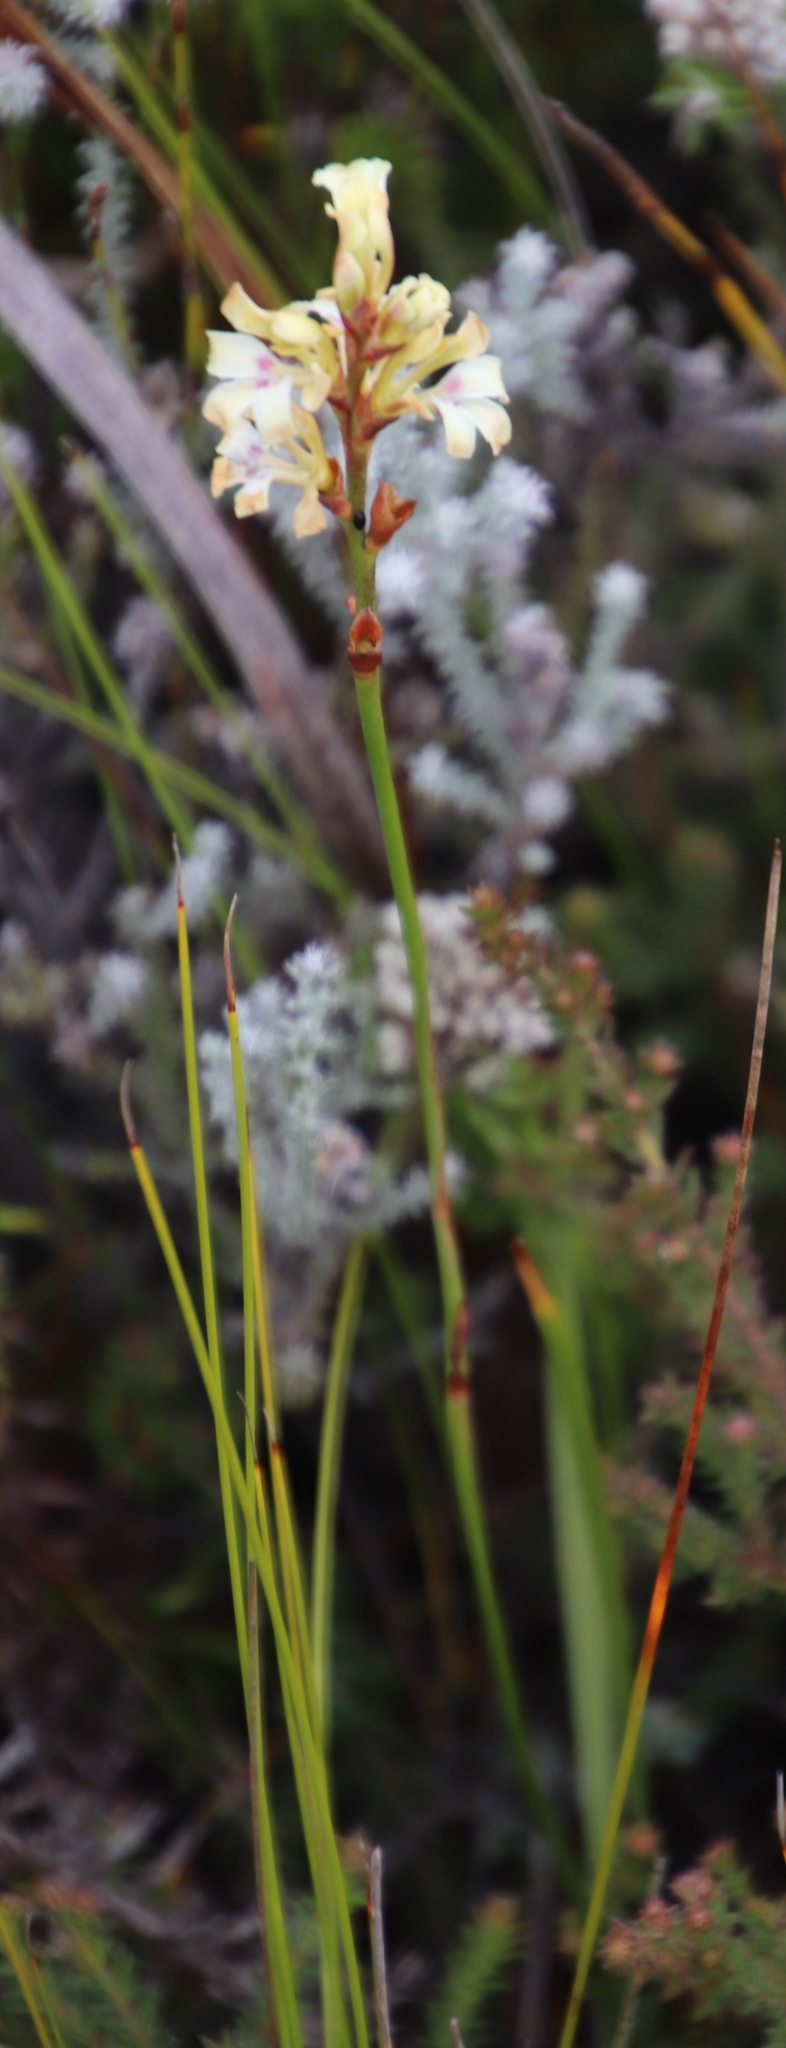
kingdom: Plantae
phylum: Tracheophyta
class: Liliopsida
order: Asparagales
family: Iridaceae
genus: Tritoniopsis
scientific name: Tritoniopsis unguicularis
